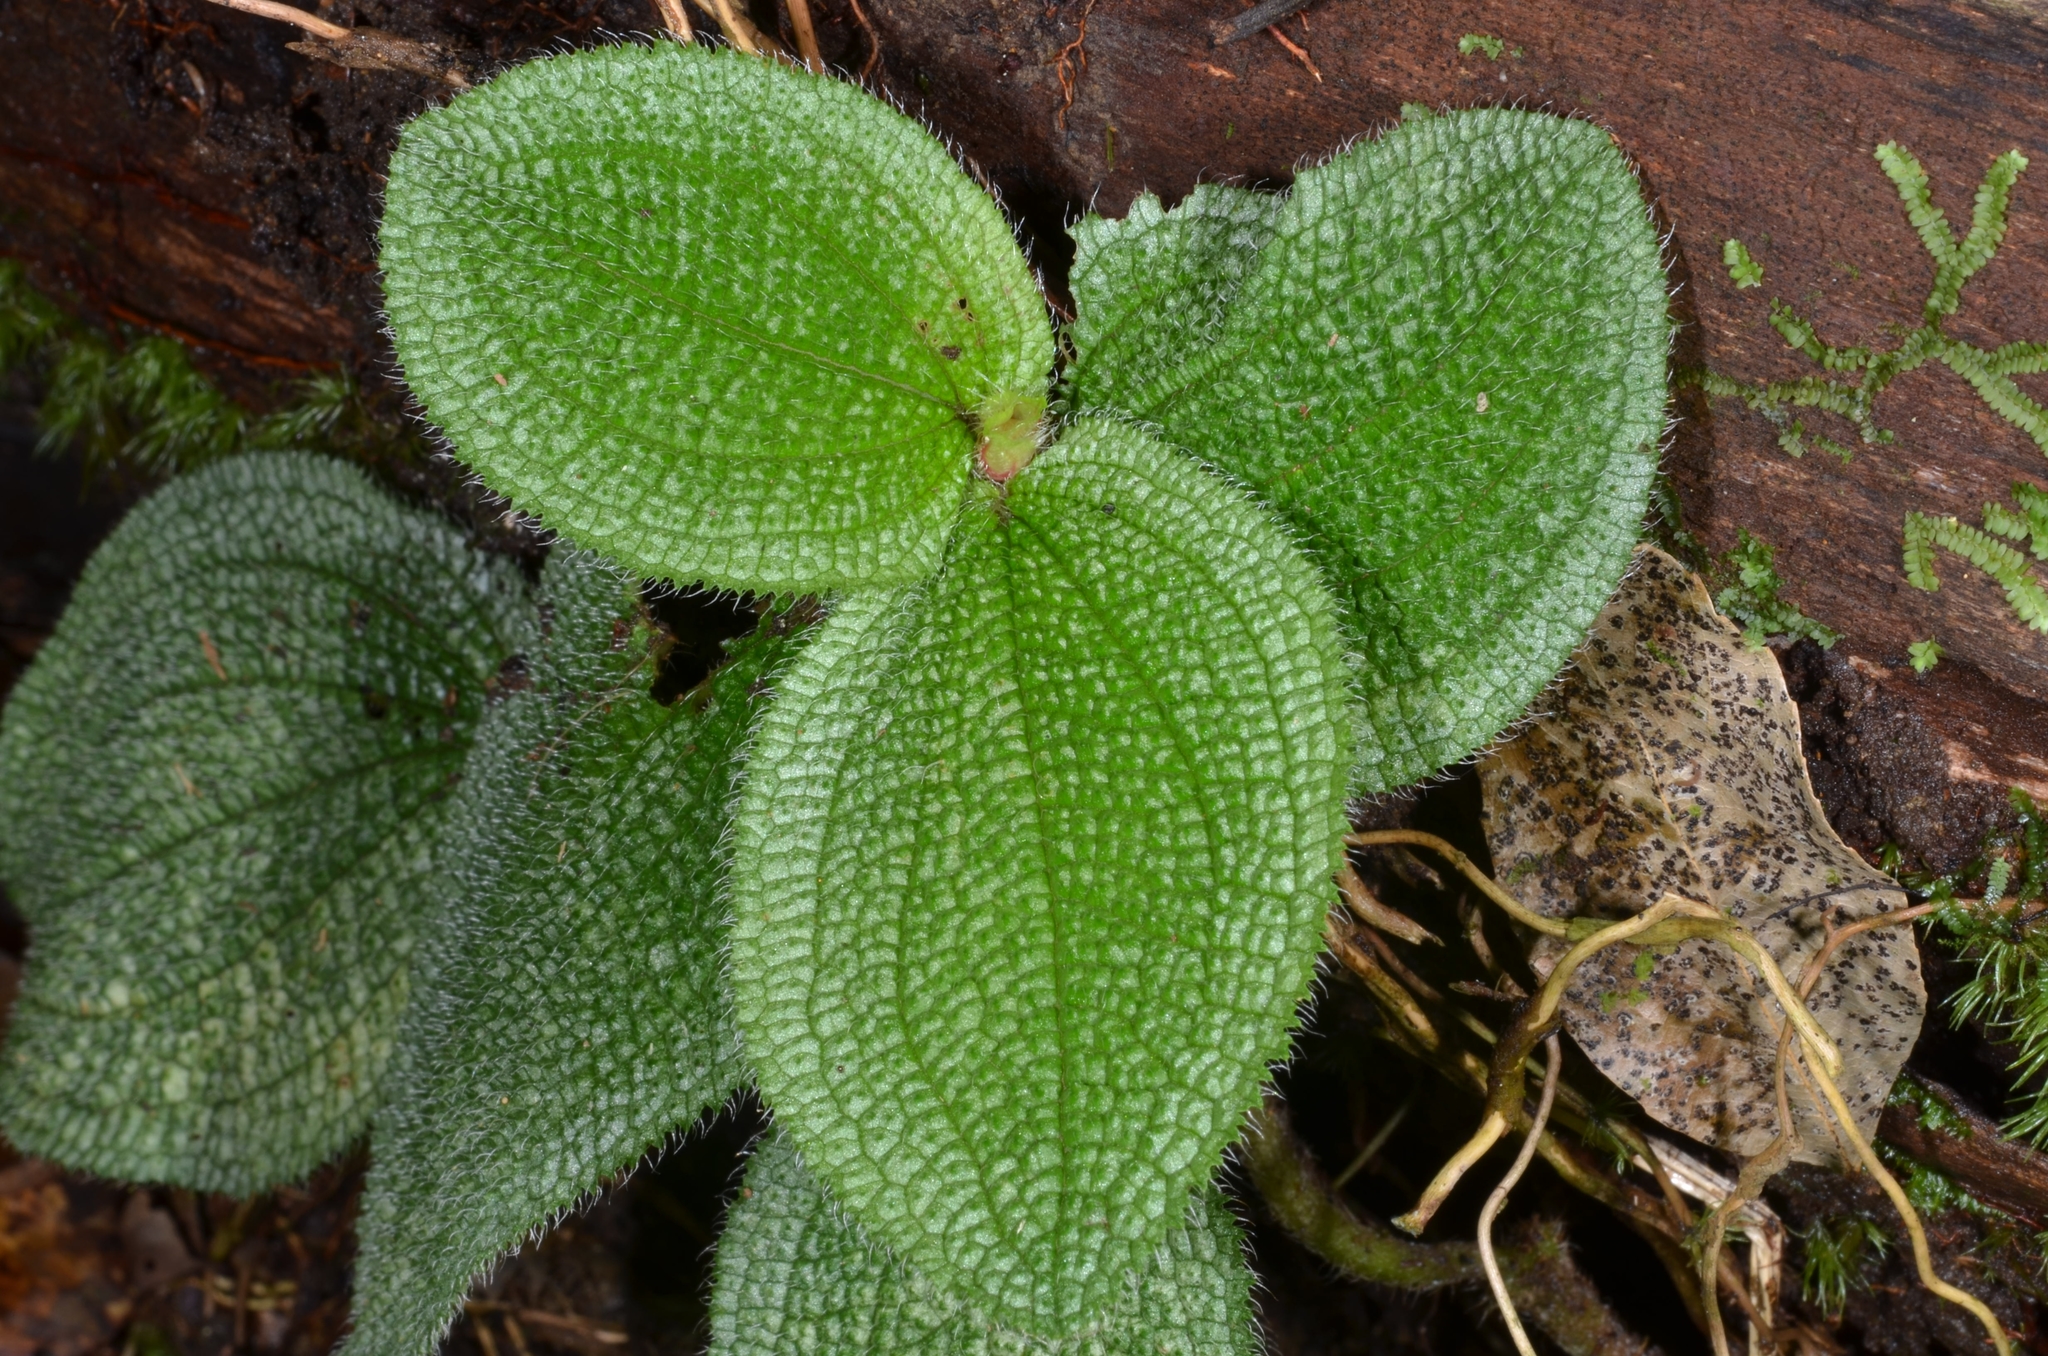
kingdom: Plantae
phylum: Tracheophyta
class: Magnoliopsida
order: Myrtales
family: Melastomataceae
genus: Nephoanthus
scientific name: Nephoanthus prostratus
